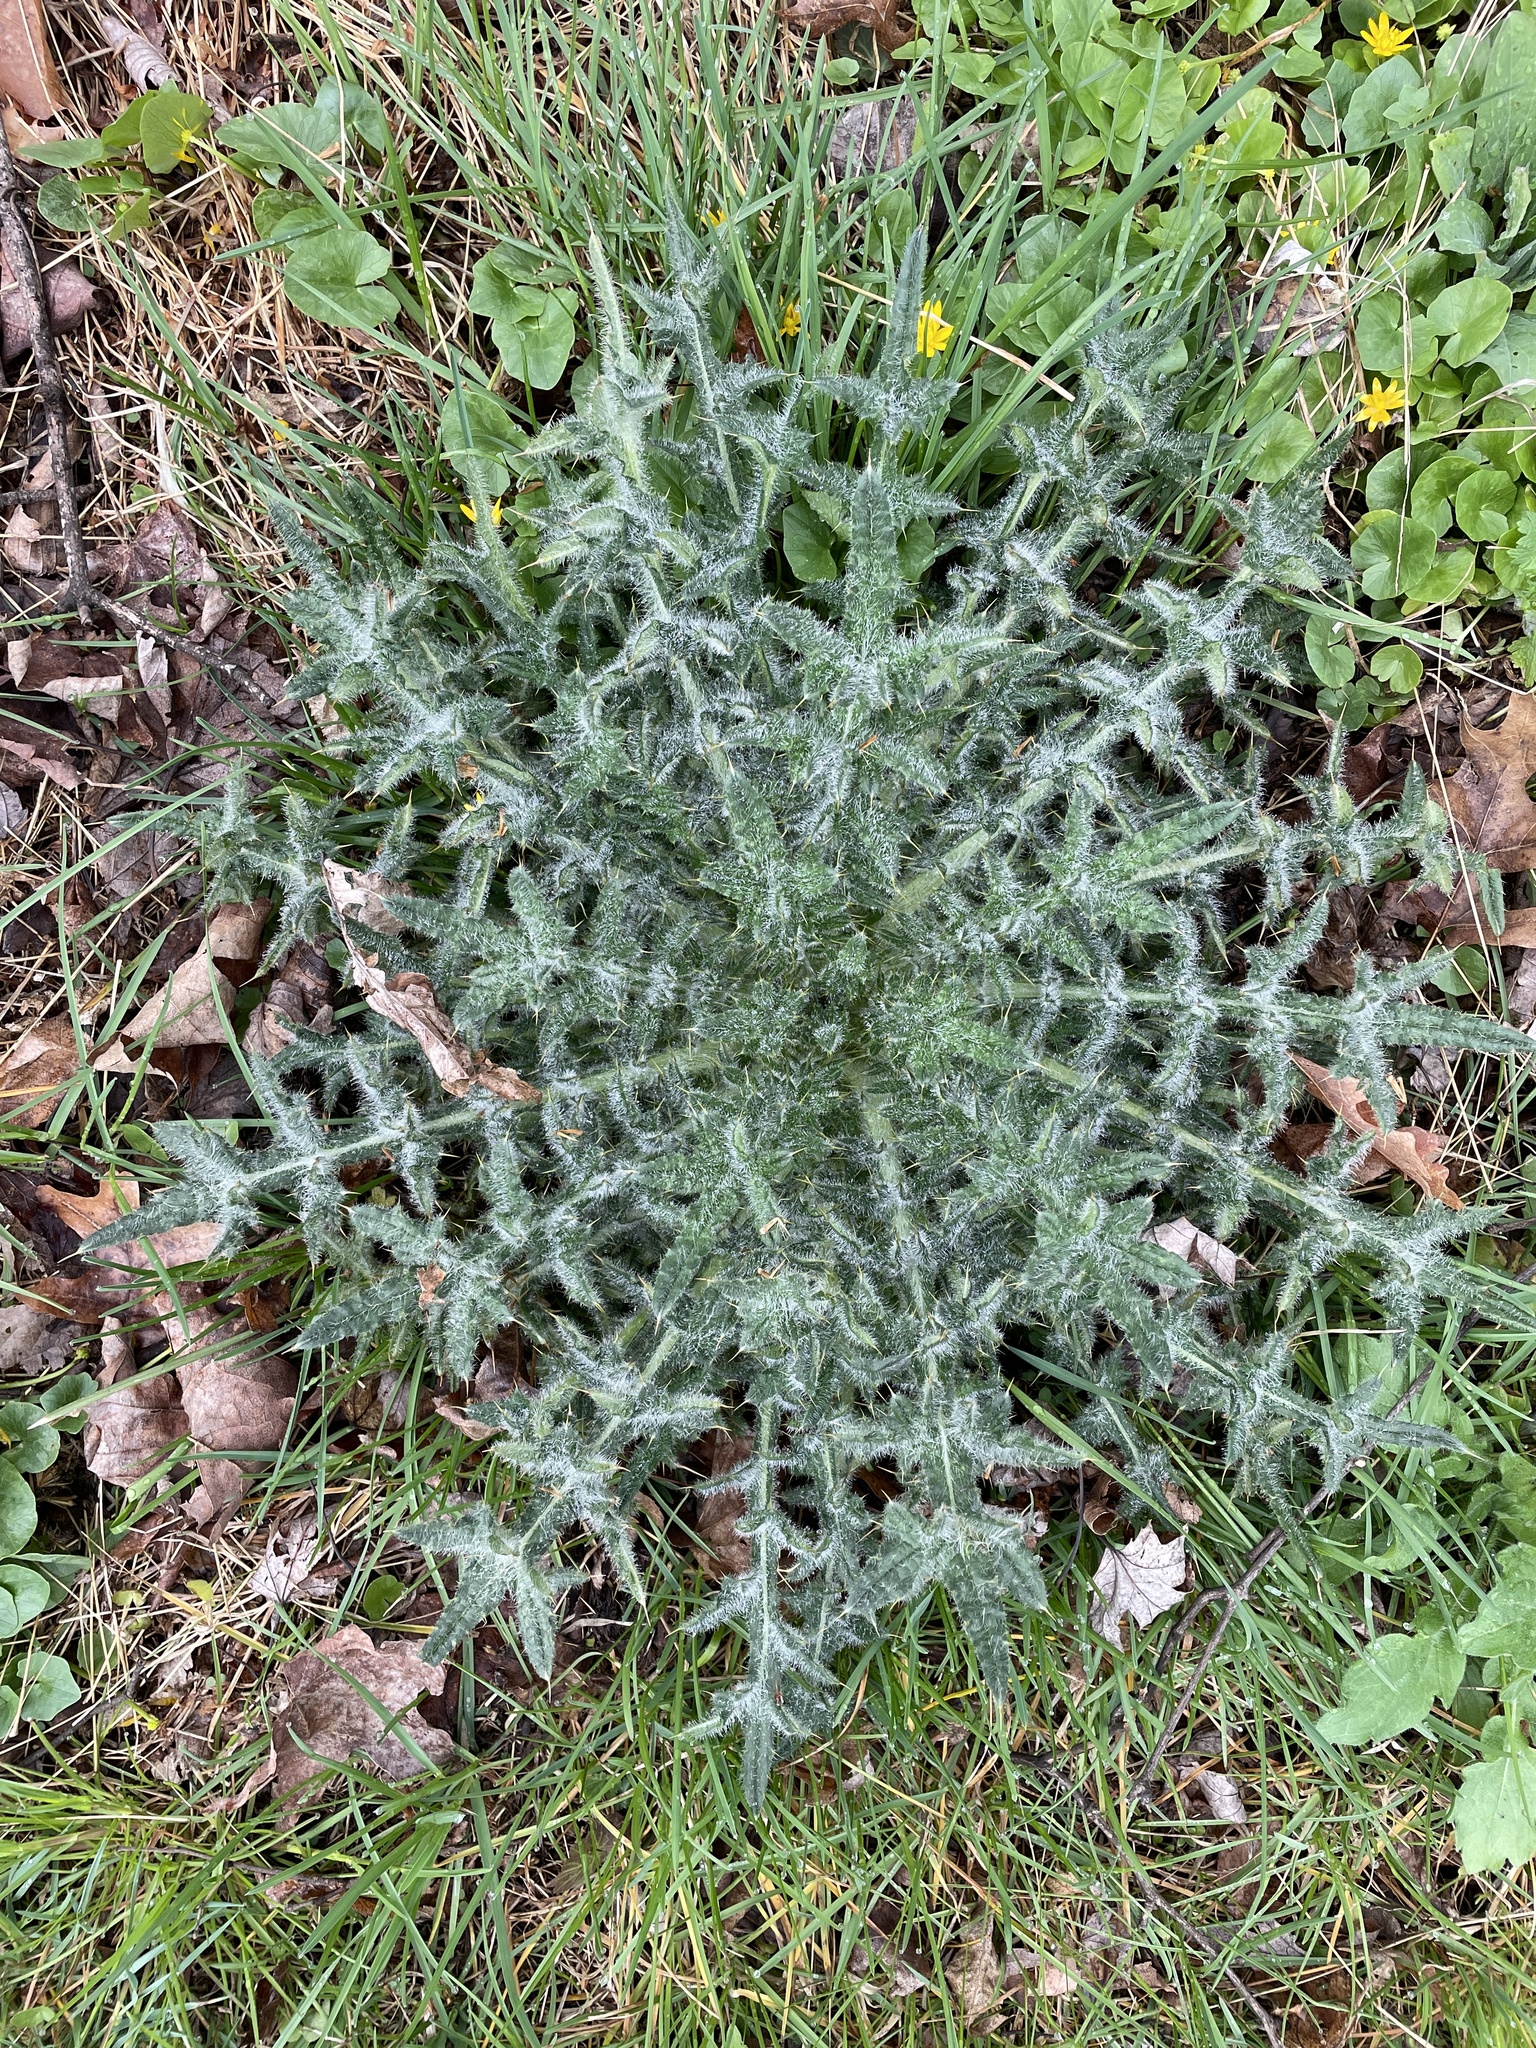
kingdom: Plantae
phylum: Tracheophyta
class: Magnoliopsida
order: Asterales
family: Asteraceae
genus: Cirsium
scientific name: Cirsium vulgare
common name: Bull thistle
